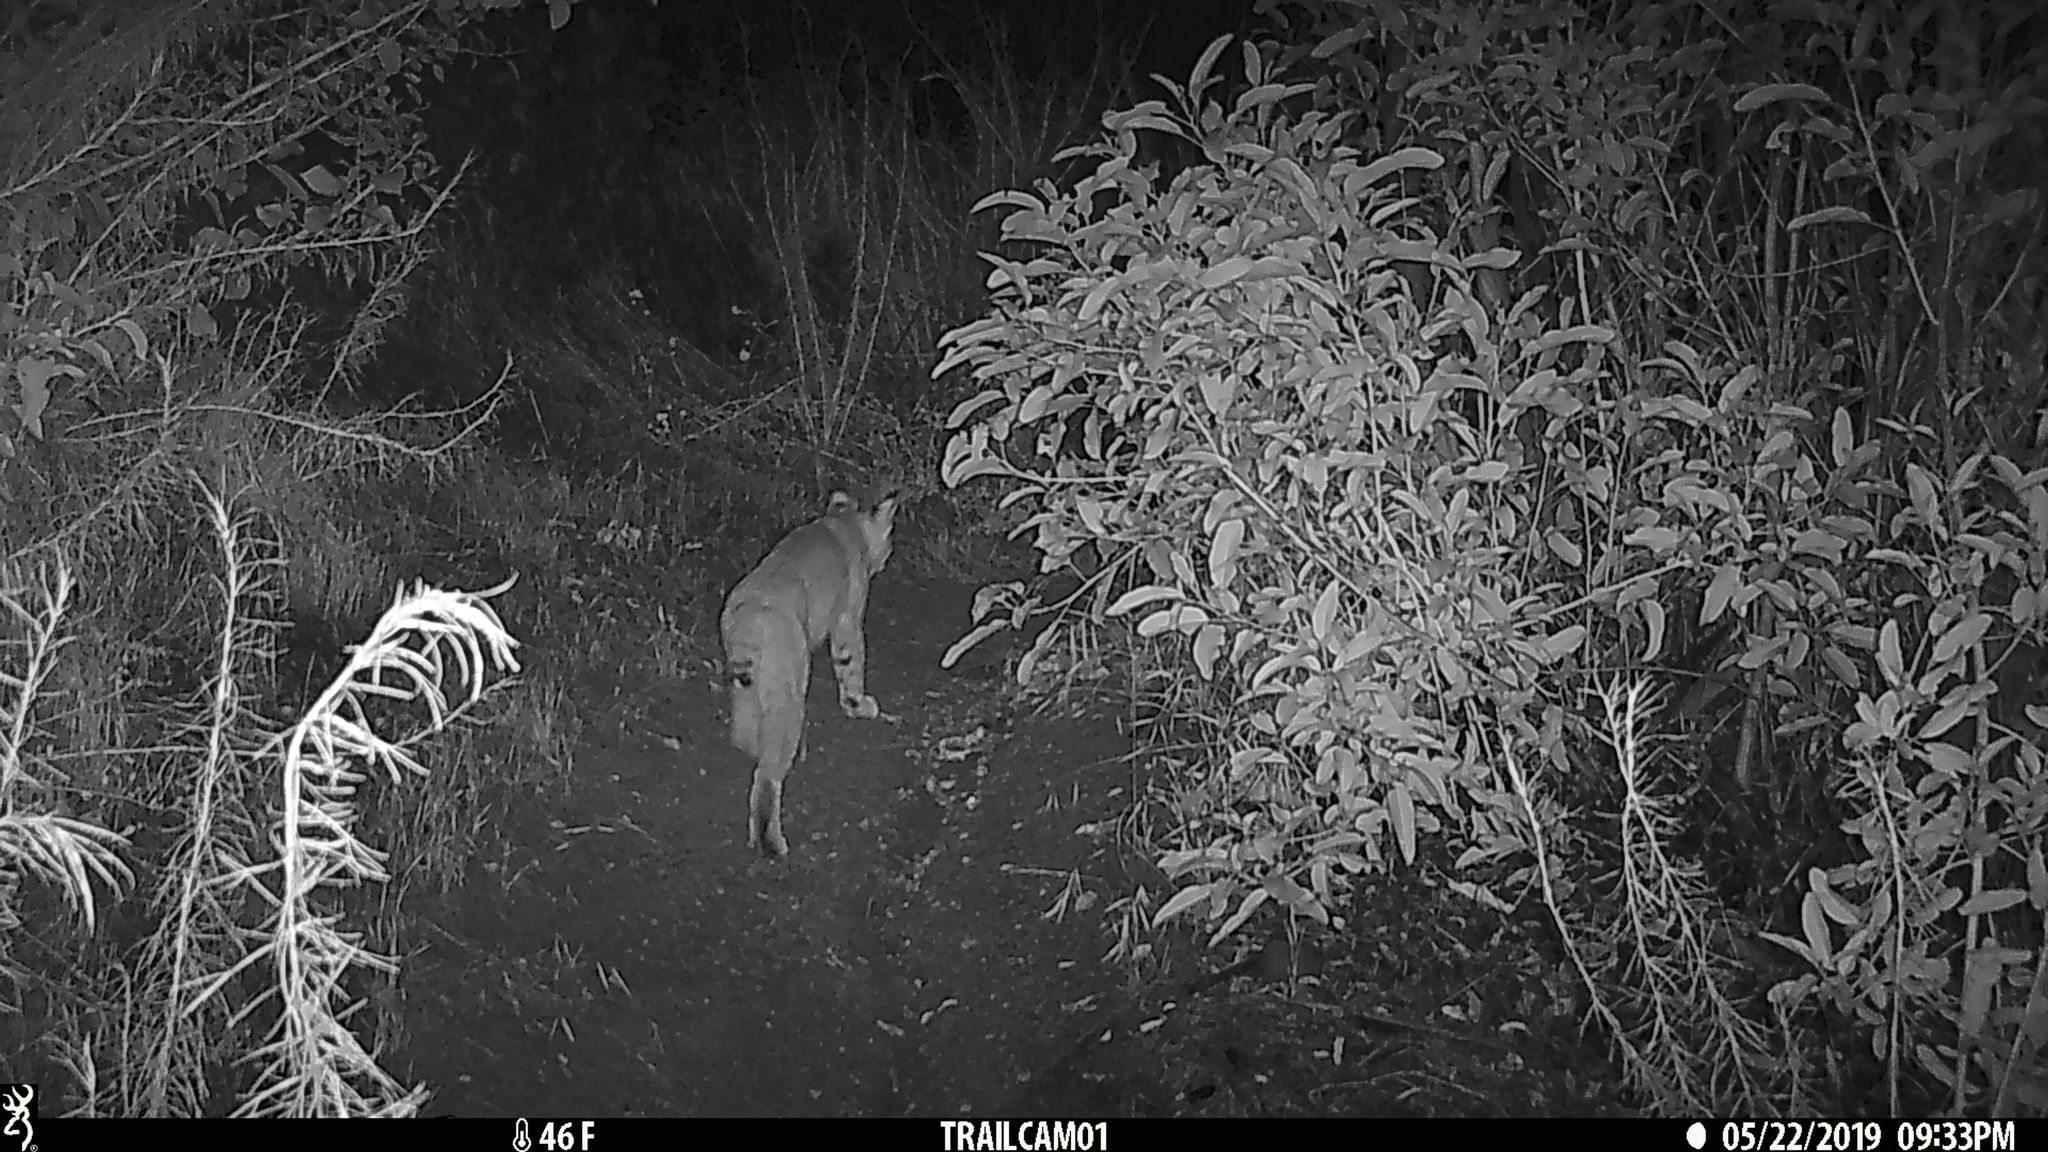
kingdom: Animalia
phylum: Chordata
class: Mammalia
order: Carnivora
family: Felidae
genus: Lynx
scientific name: Lynx rufus
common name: Bobcat
